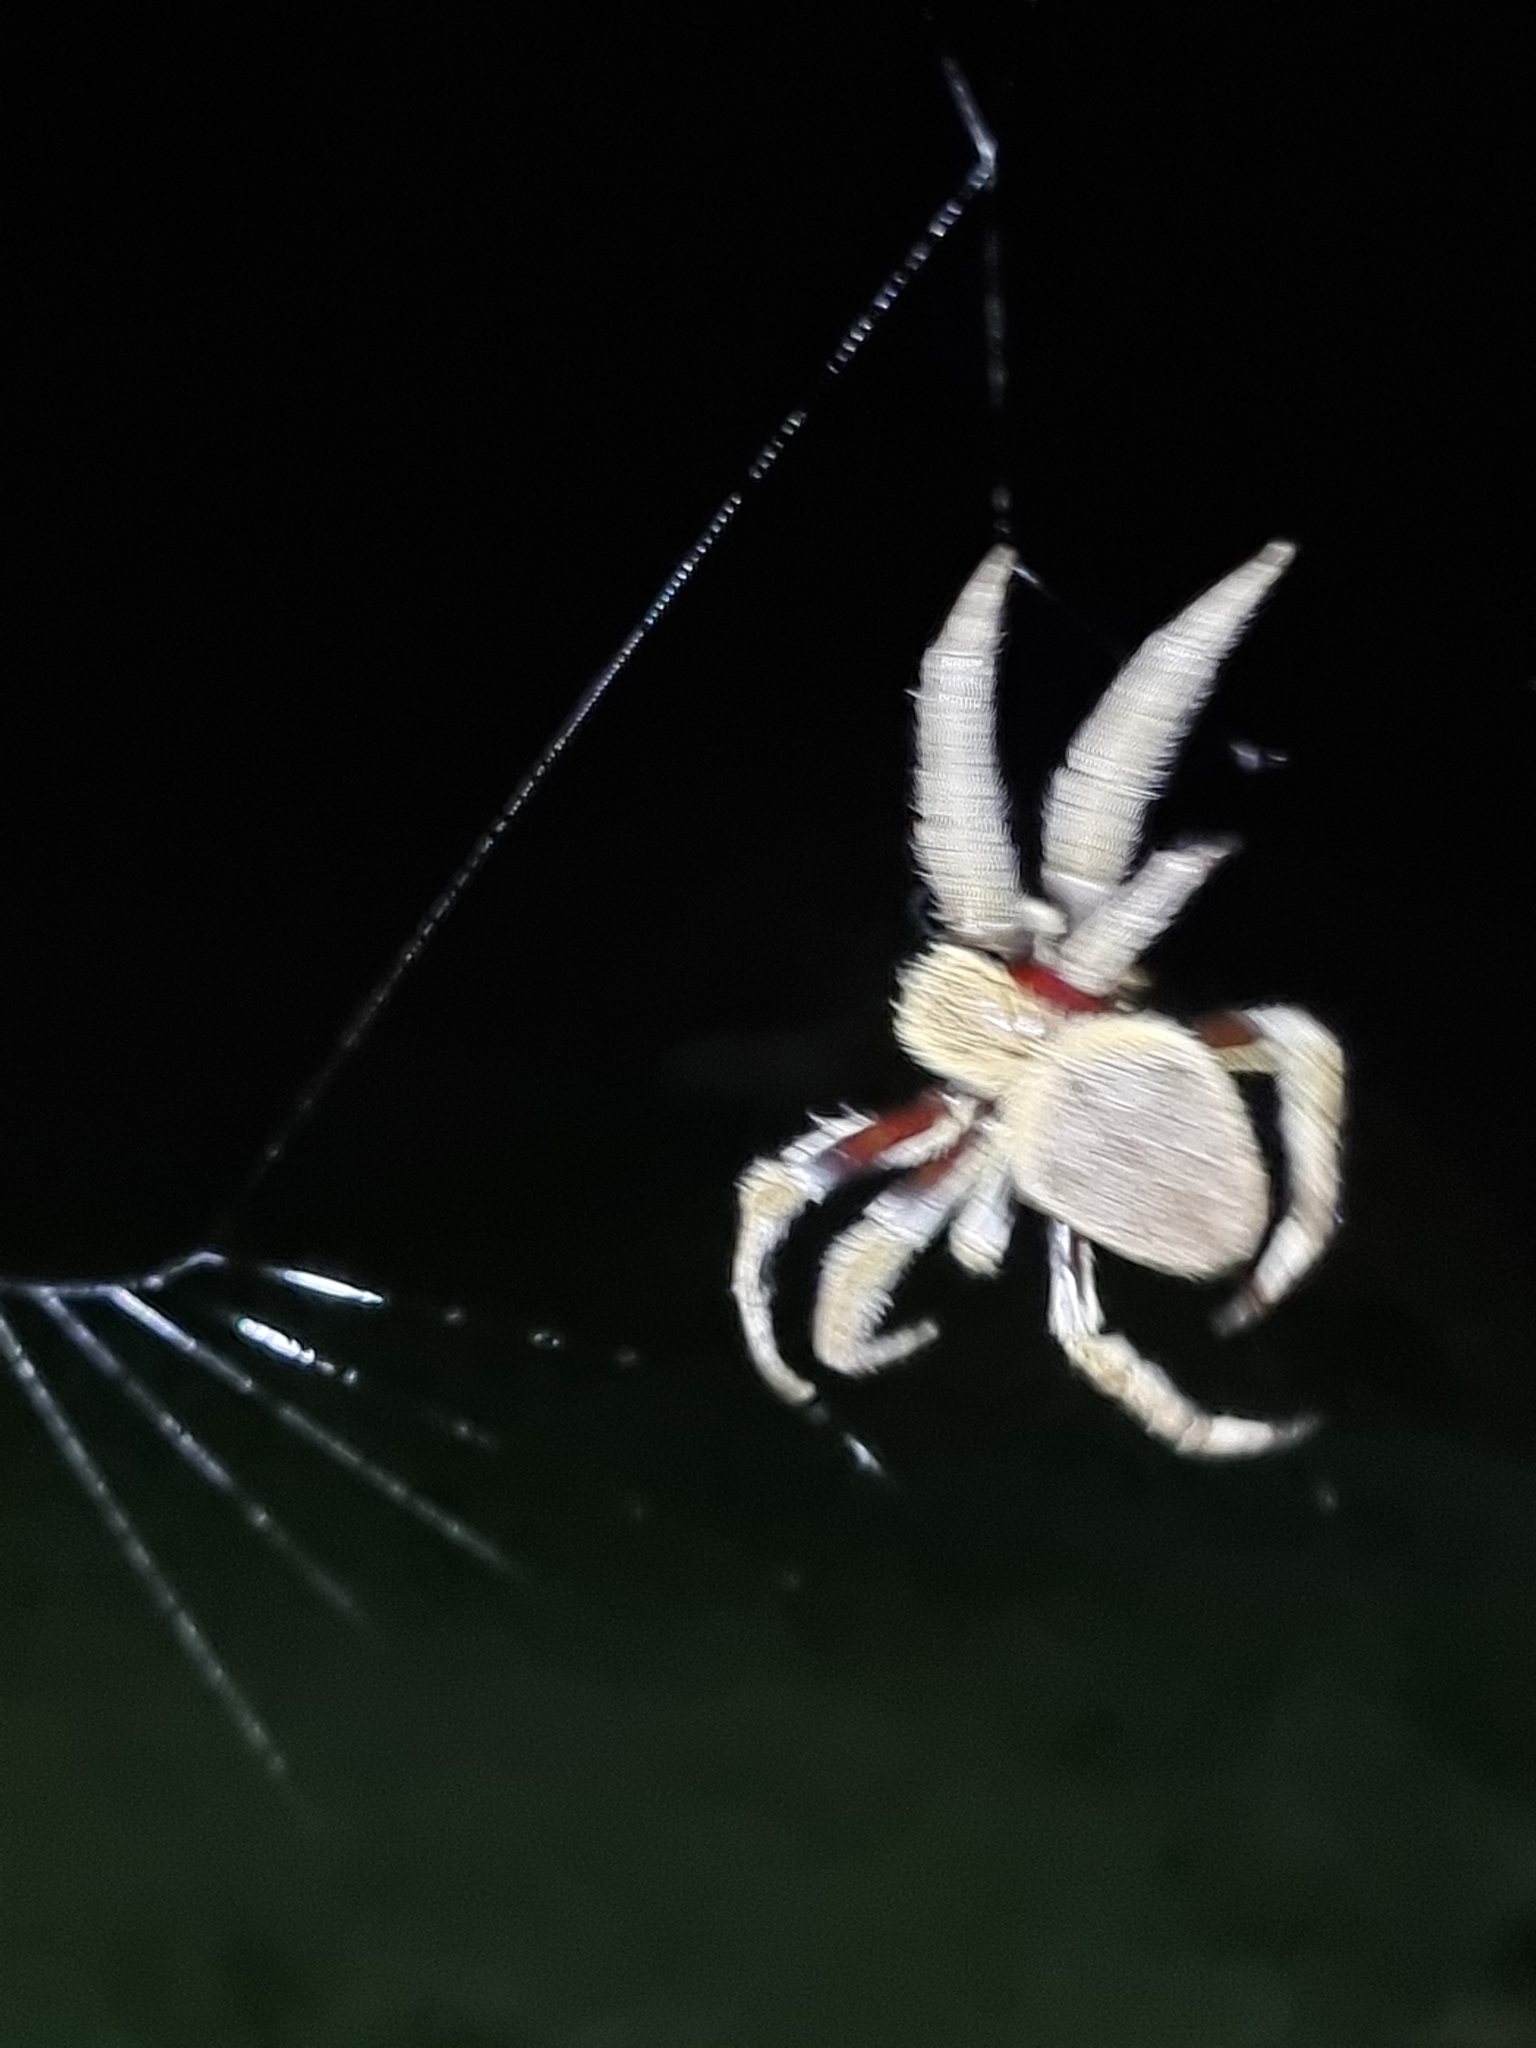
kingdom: Animalia
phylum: Arthropoda
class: Arachnida
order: Araneae
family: Araneidae
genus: Hortophora
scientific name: Hortophora
